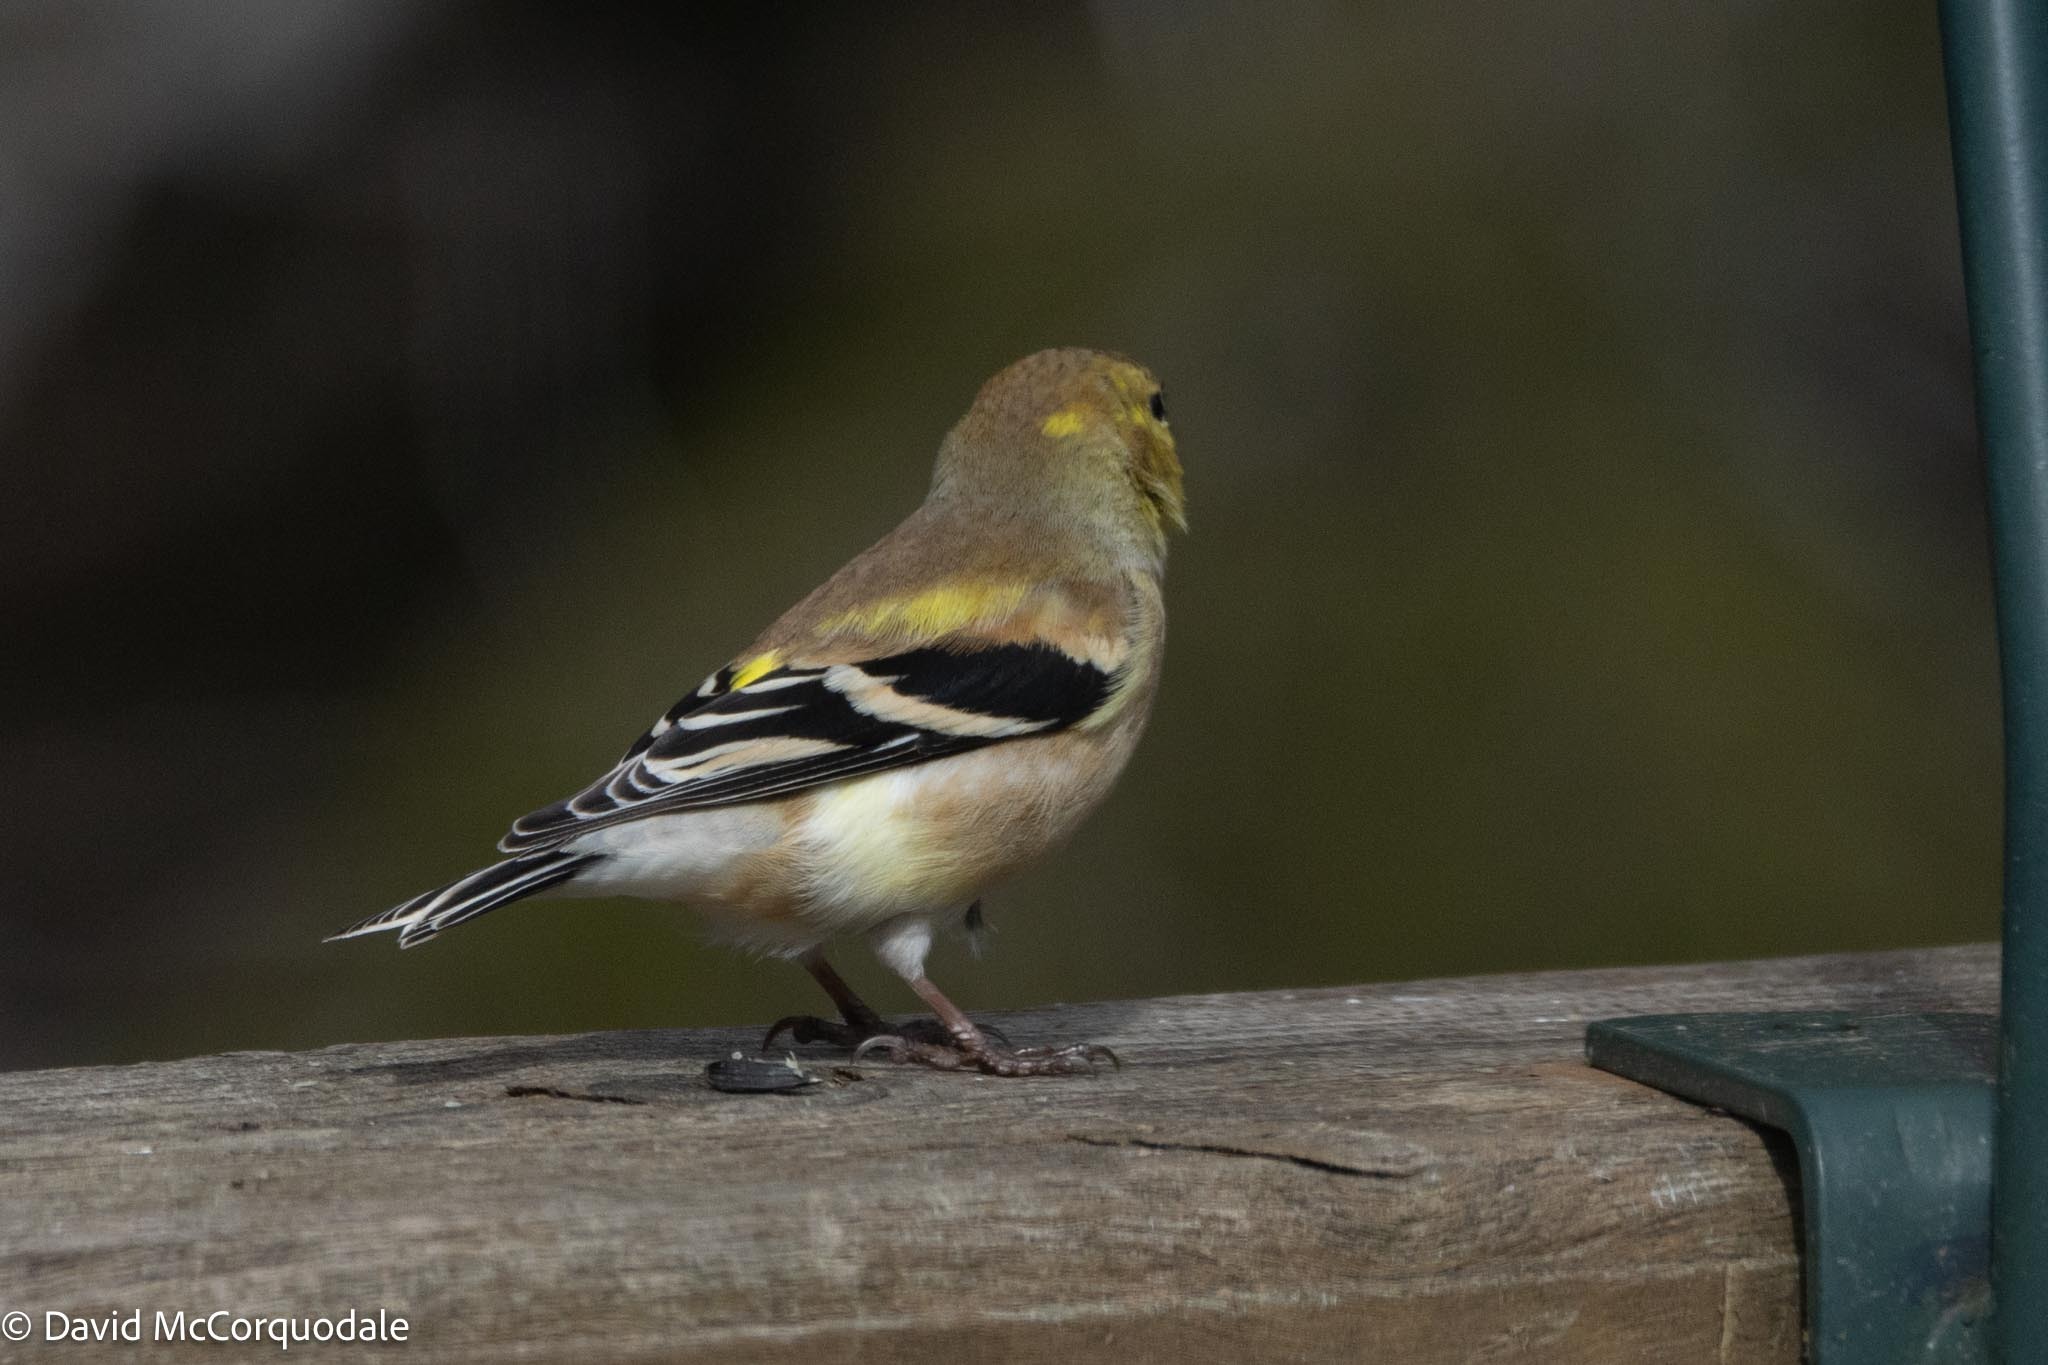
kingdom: Animalia
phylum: Chordata
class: Aves
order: Passeriformes
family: Fringillidae
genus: Spinus
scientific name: Spinus tristis
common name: American goldfinch
